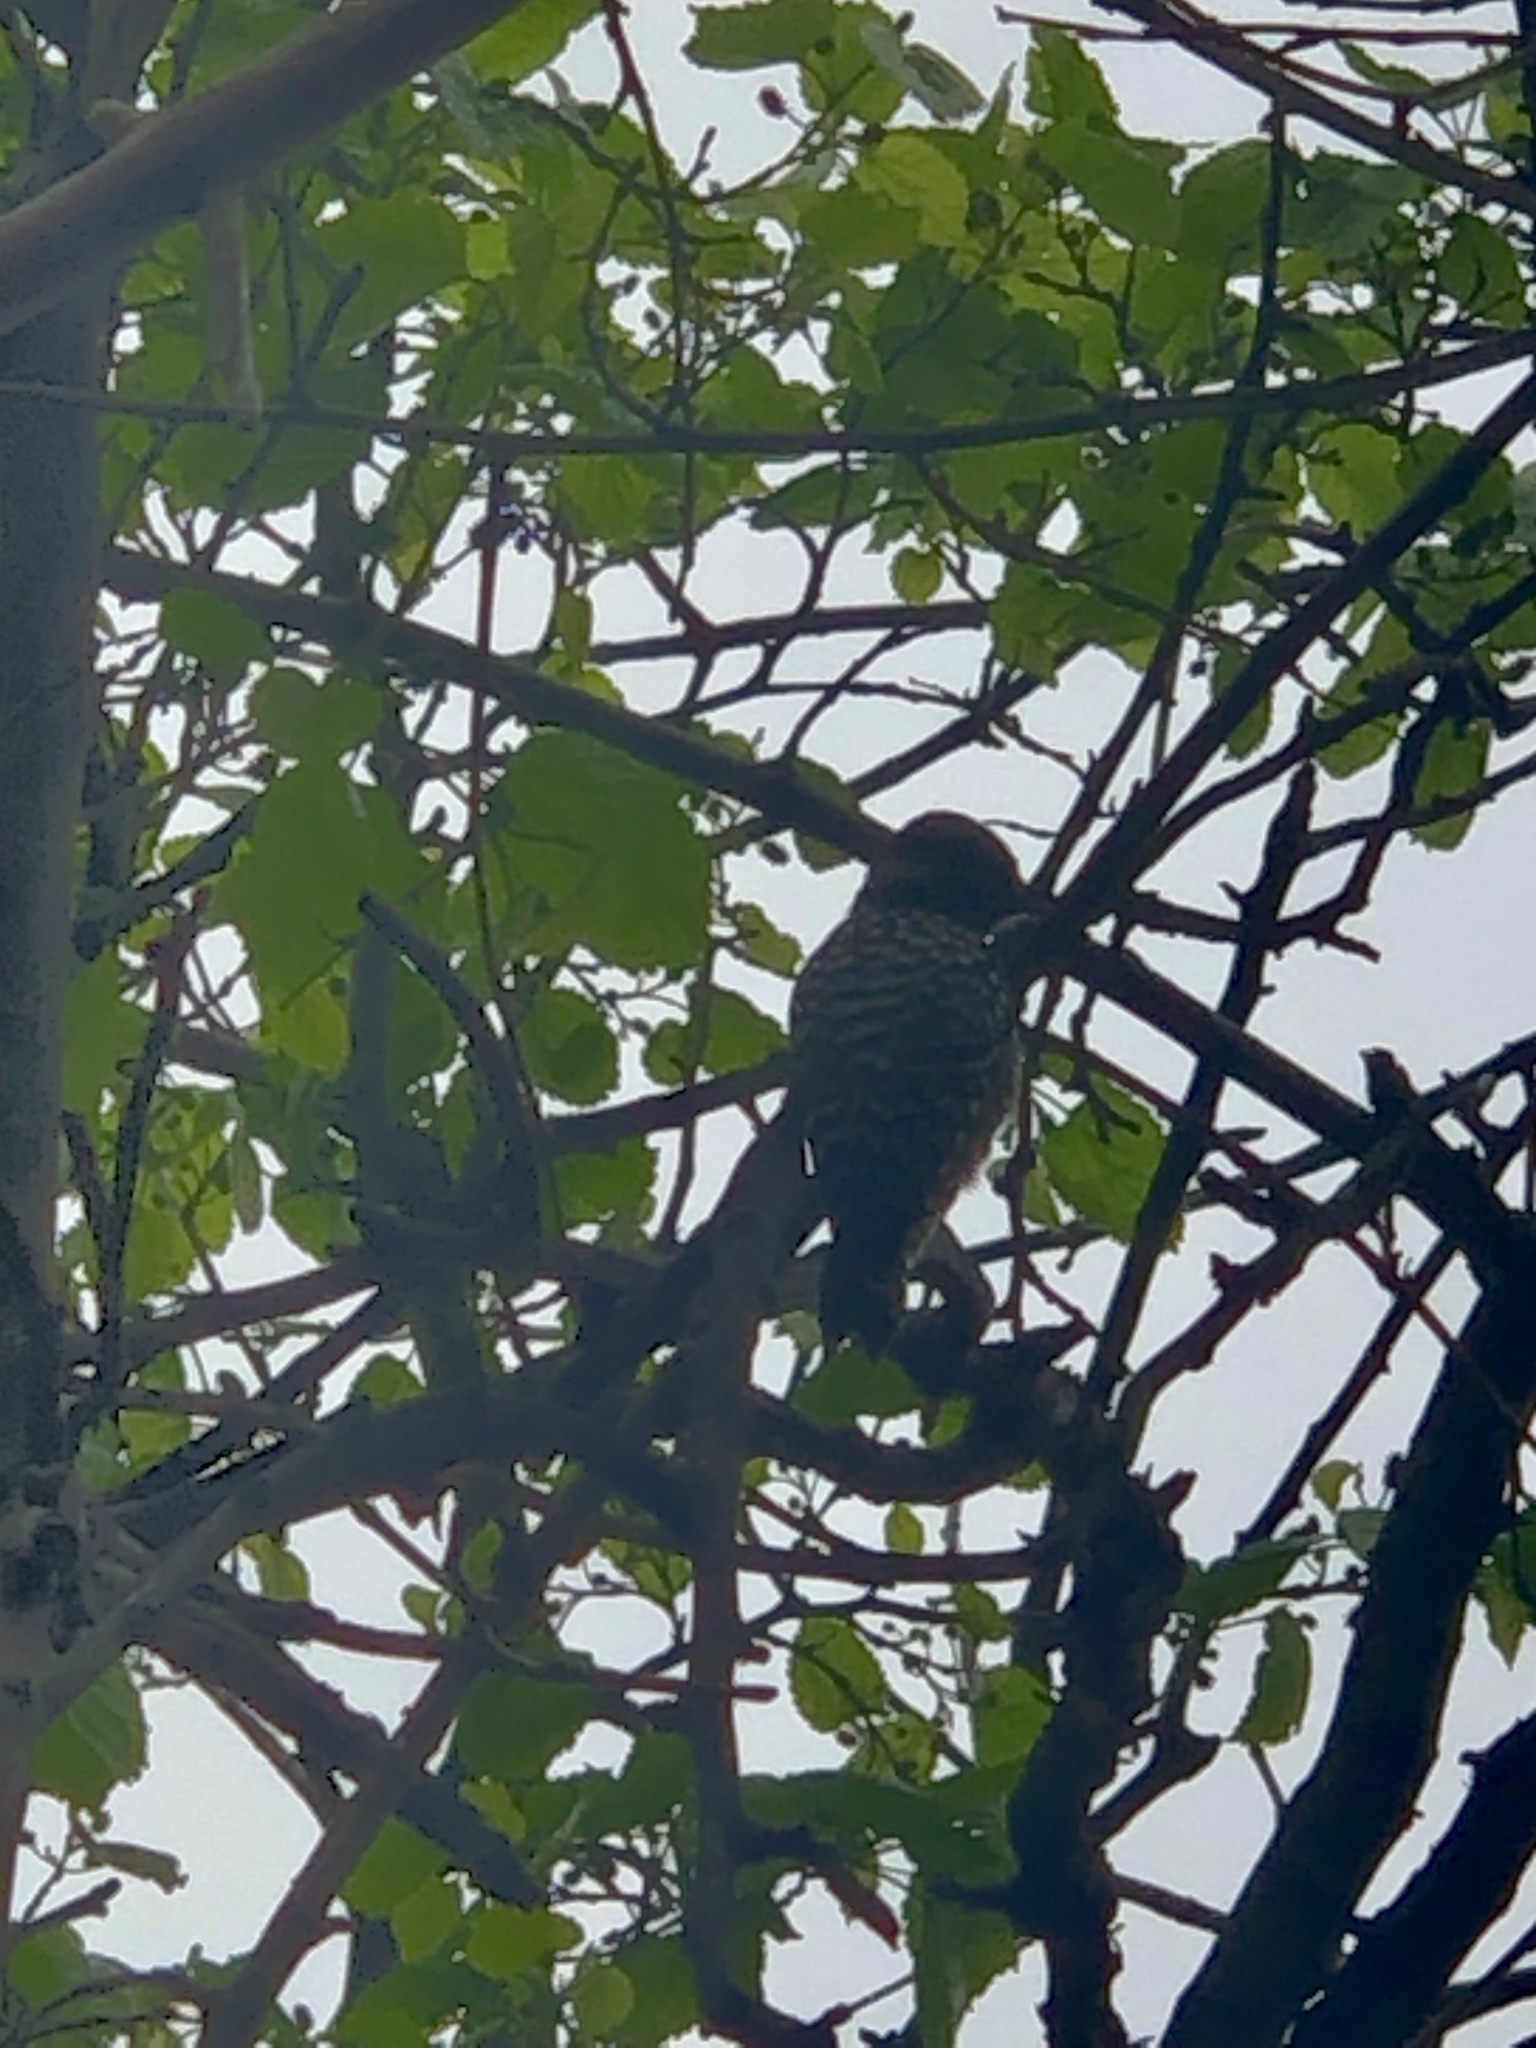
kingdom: Animalia
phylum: Chordata
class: Aves
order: Piciformes
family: Picidae
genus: Veniliornis
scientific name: Veniliornis mixtus
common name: Checkered woodpecker
